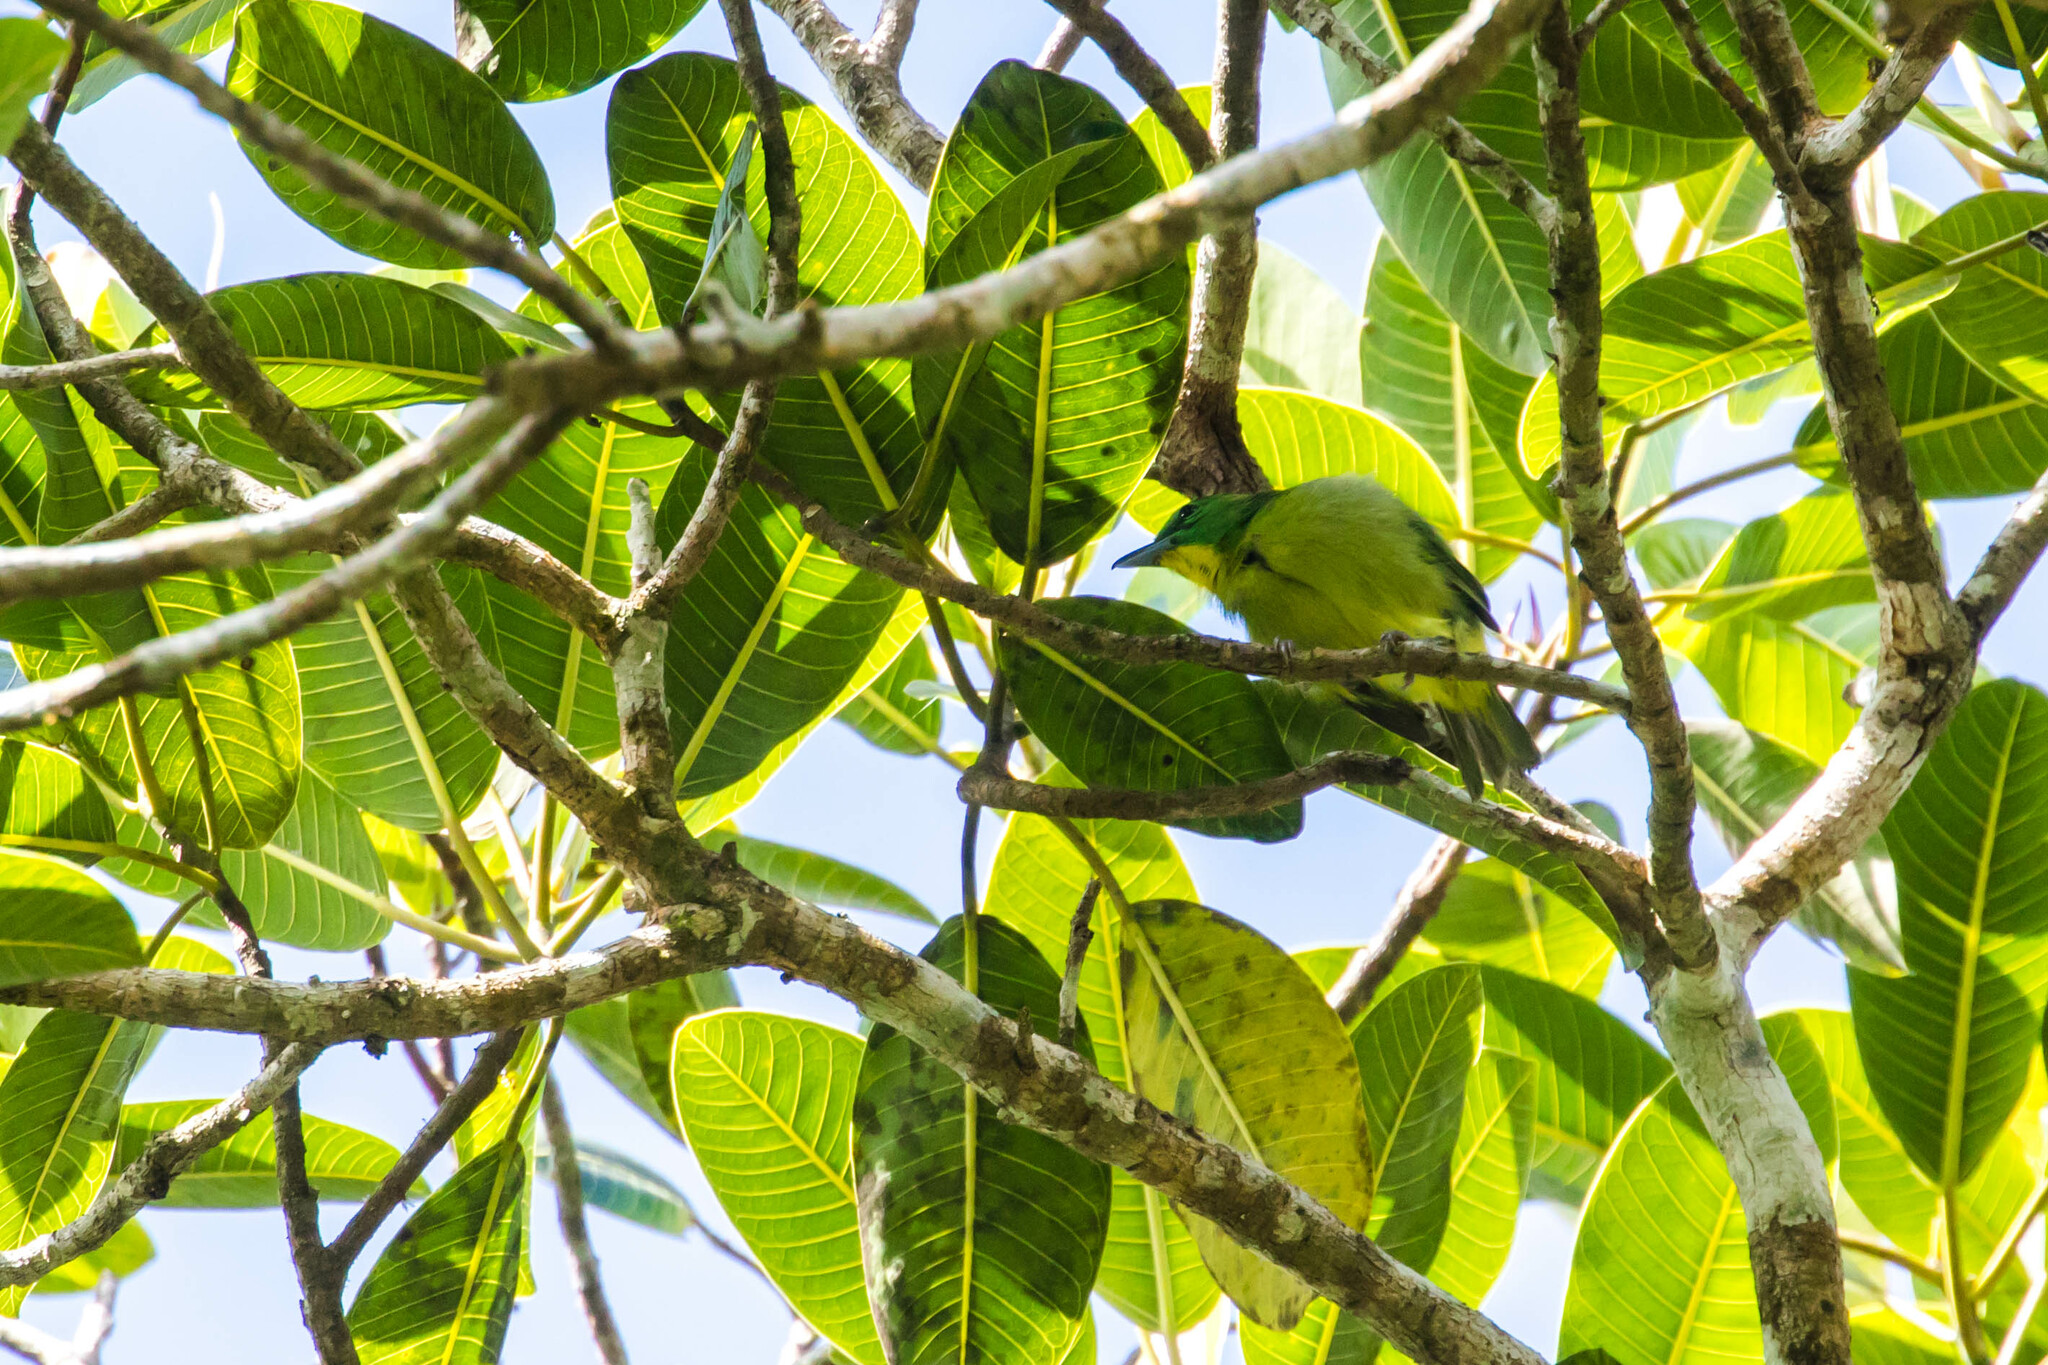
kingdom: Animalia
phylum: Chordata
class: Aves
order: Passeriformes
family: Vireonidae
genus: Vireolanius
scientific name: Vireolanius pulchellus
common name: Green shrike-vireo
